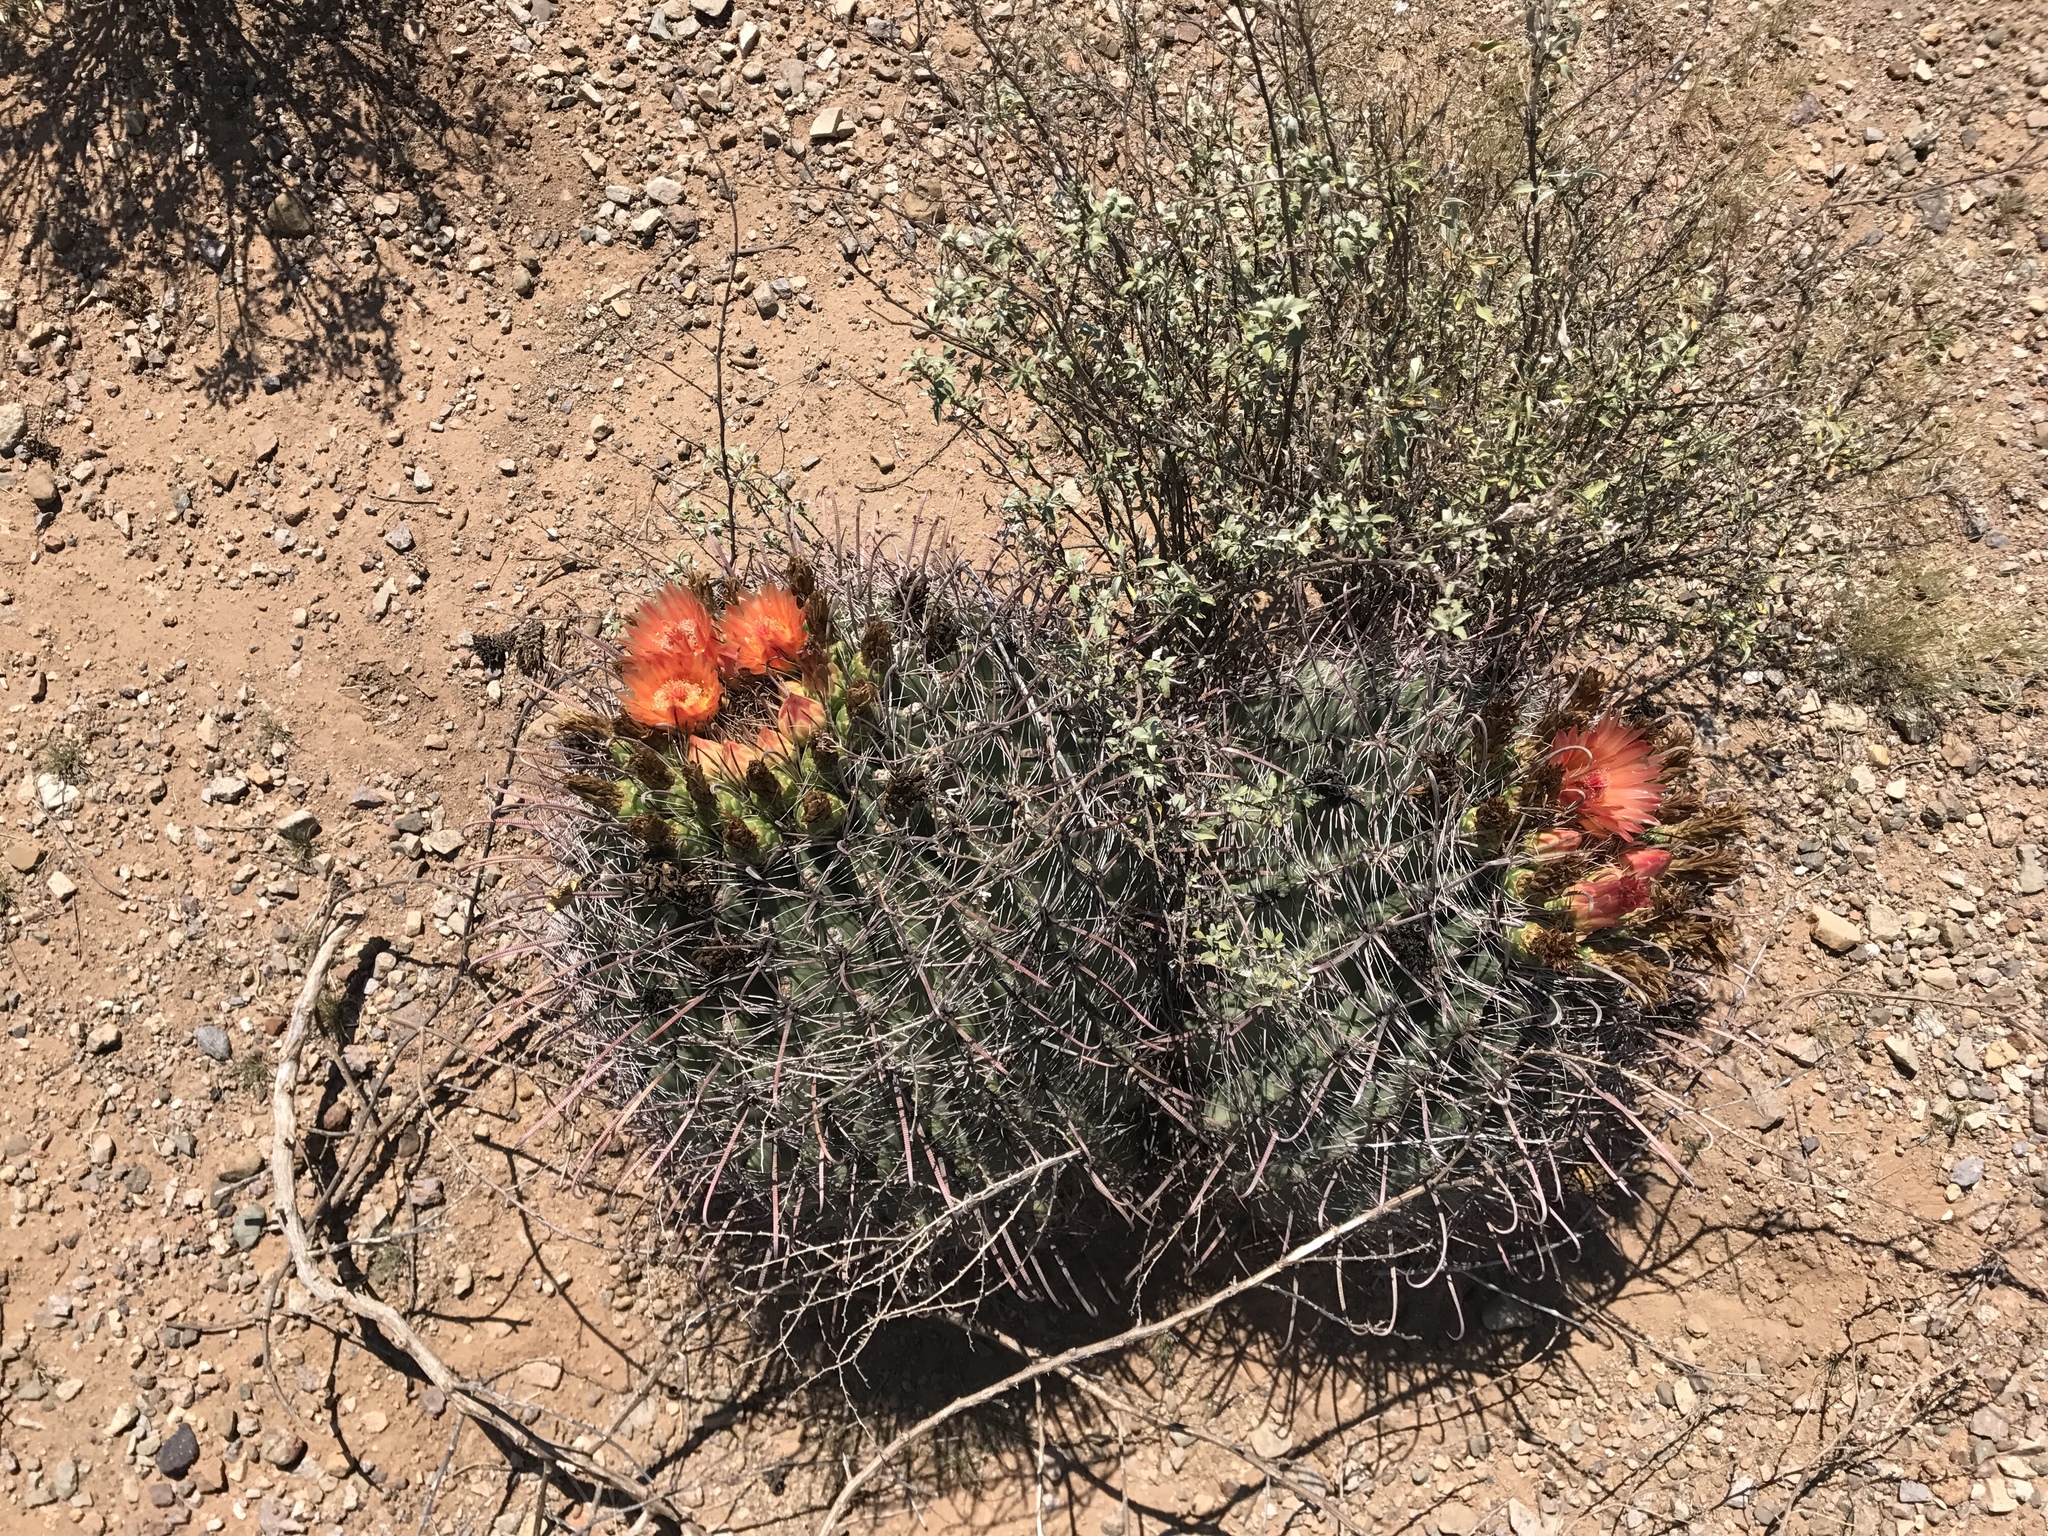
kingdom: Plantae
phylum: Tracheophyta
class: Magnoliopsida
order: Caryophyllales
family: Cactaceae
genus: Ferocactus
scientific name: Ferocactus wislizeni
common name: Candy barrel cactus
